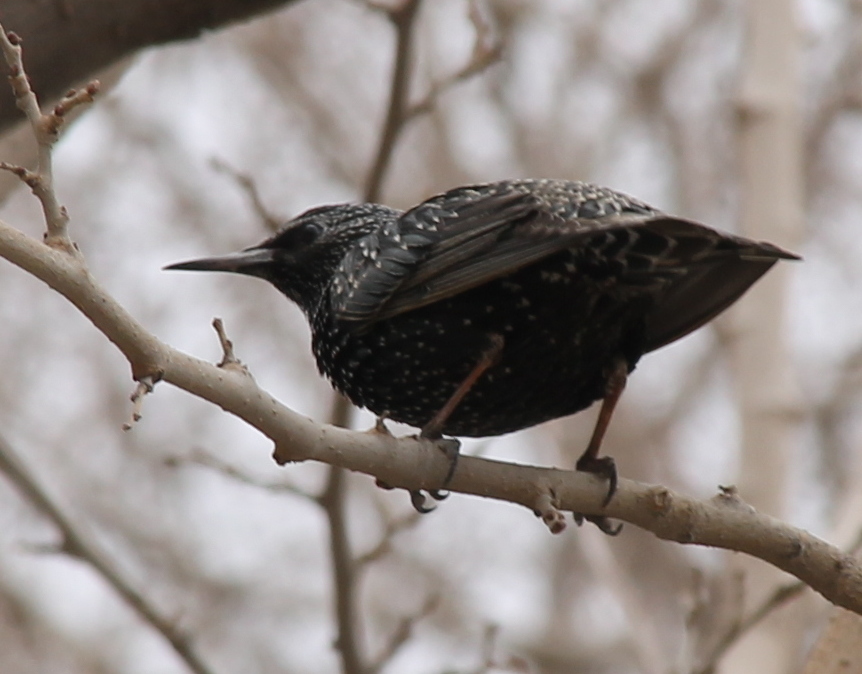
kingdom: Animalia
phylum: Chordata
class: Aves
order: Passeriformes
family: Sturnidae
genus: Sturnus
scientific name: Sturnus vulgaris
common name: Common starling
